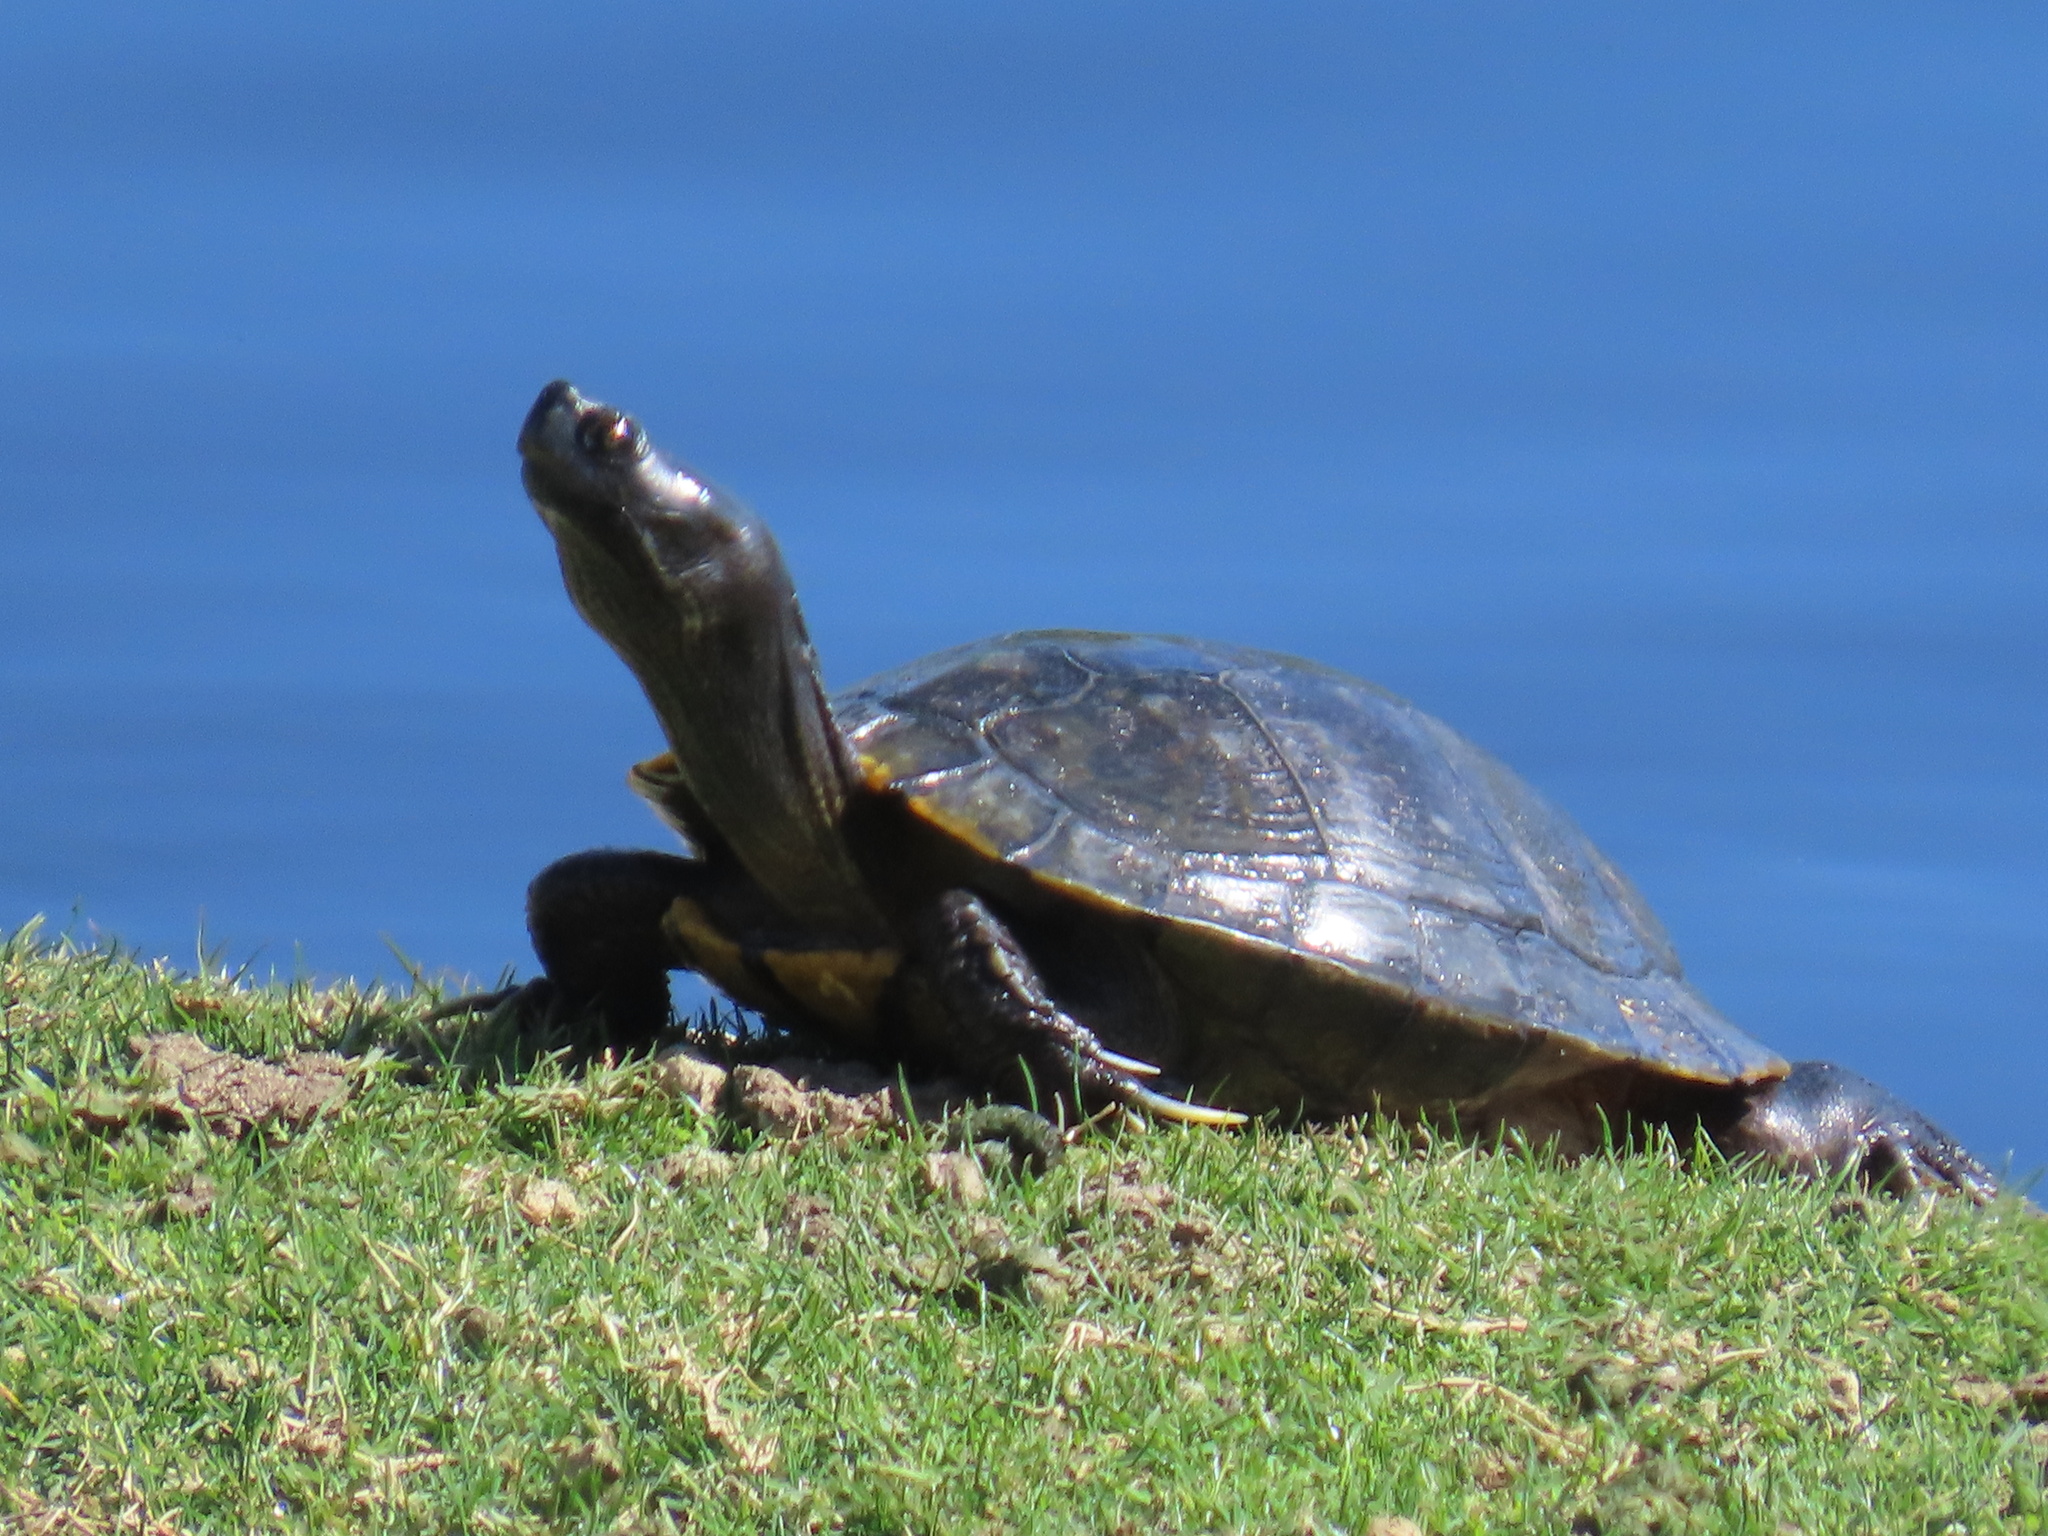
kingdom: Animalia
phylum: Chordata
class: Testudines
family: Emydidae
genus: Trachemys
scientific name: Trachemys scripta
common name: Slider
